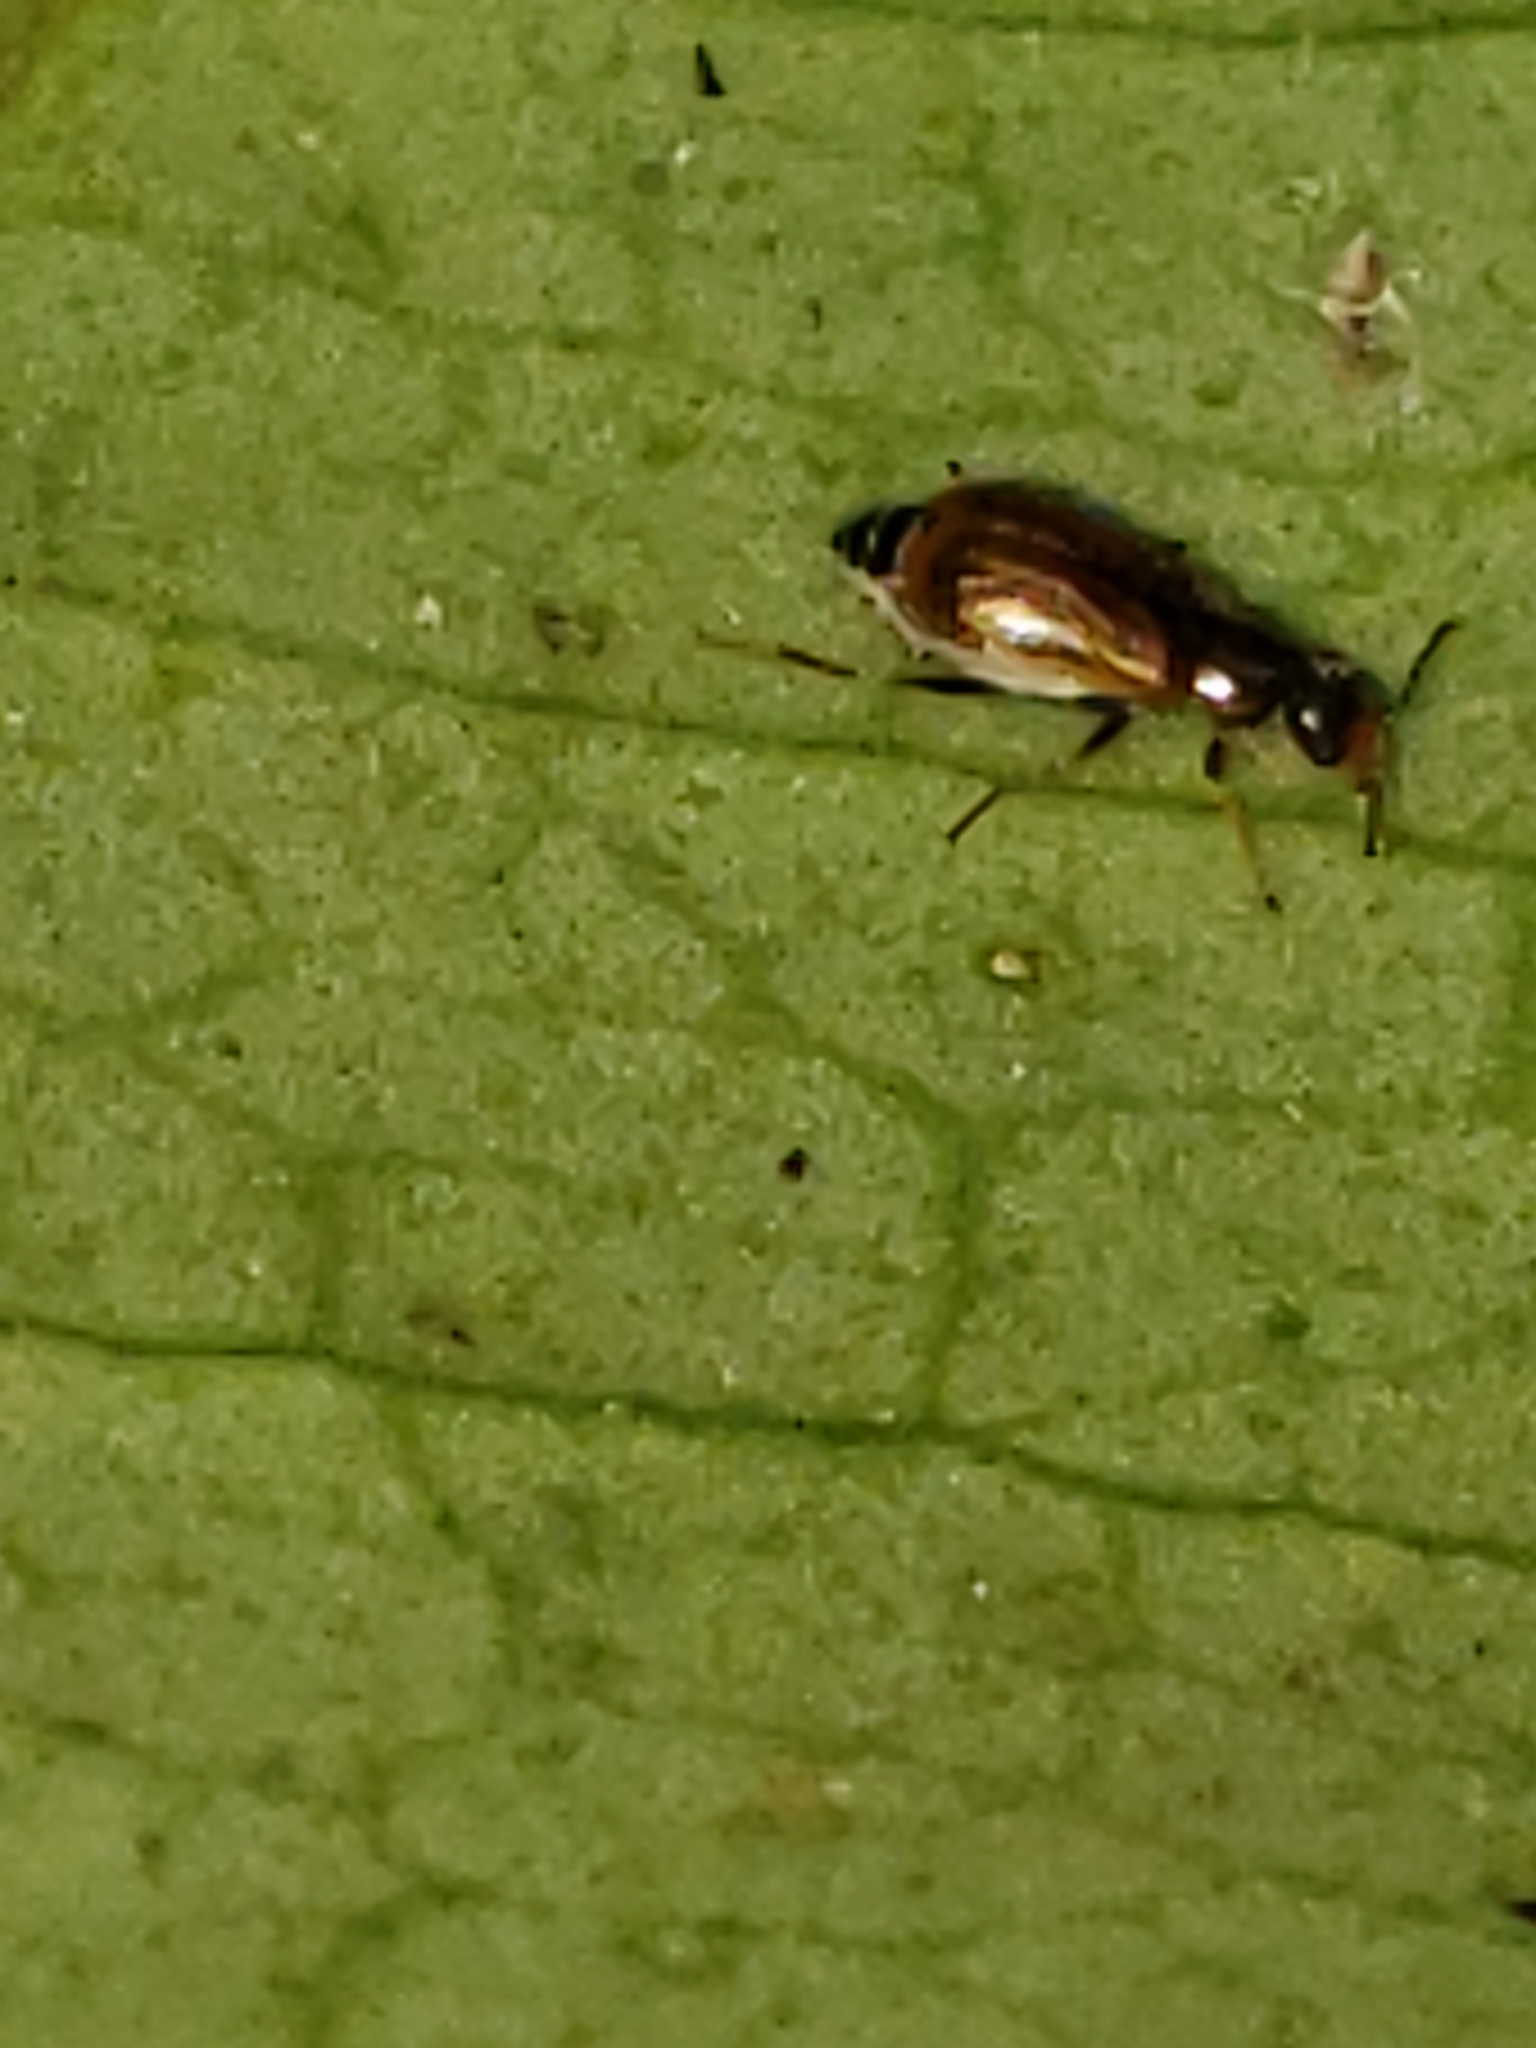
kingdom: Animalia
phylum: Arthropoda
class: Insecta
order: Coleoptera
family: Malachiidae
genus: Attalus
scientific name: Attalus
